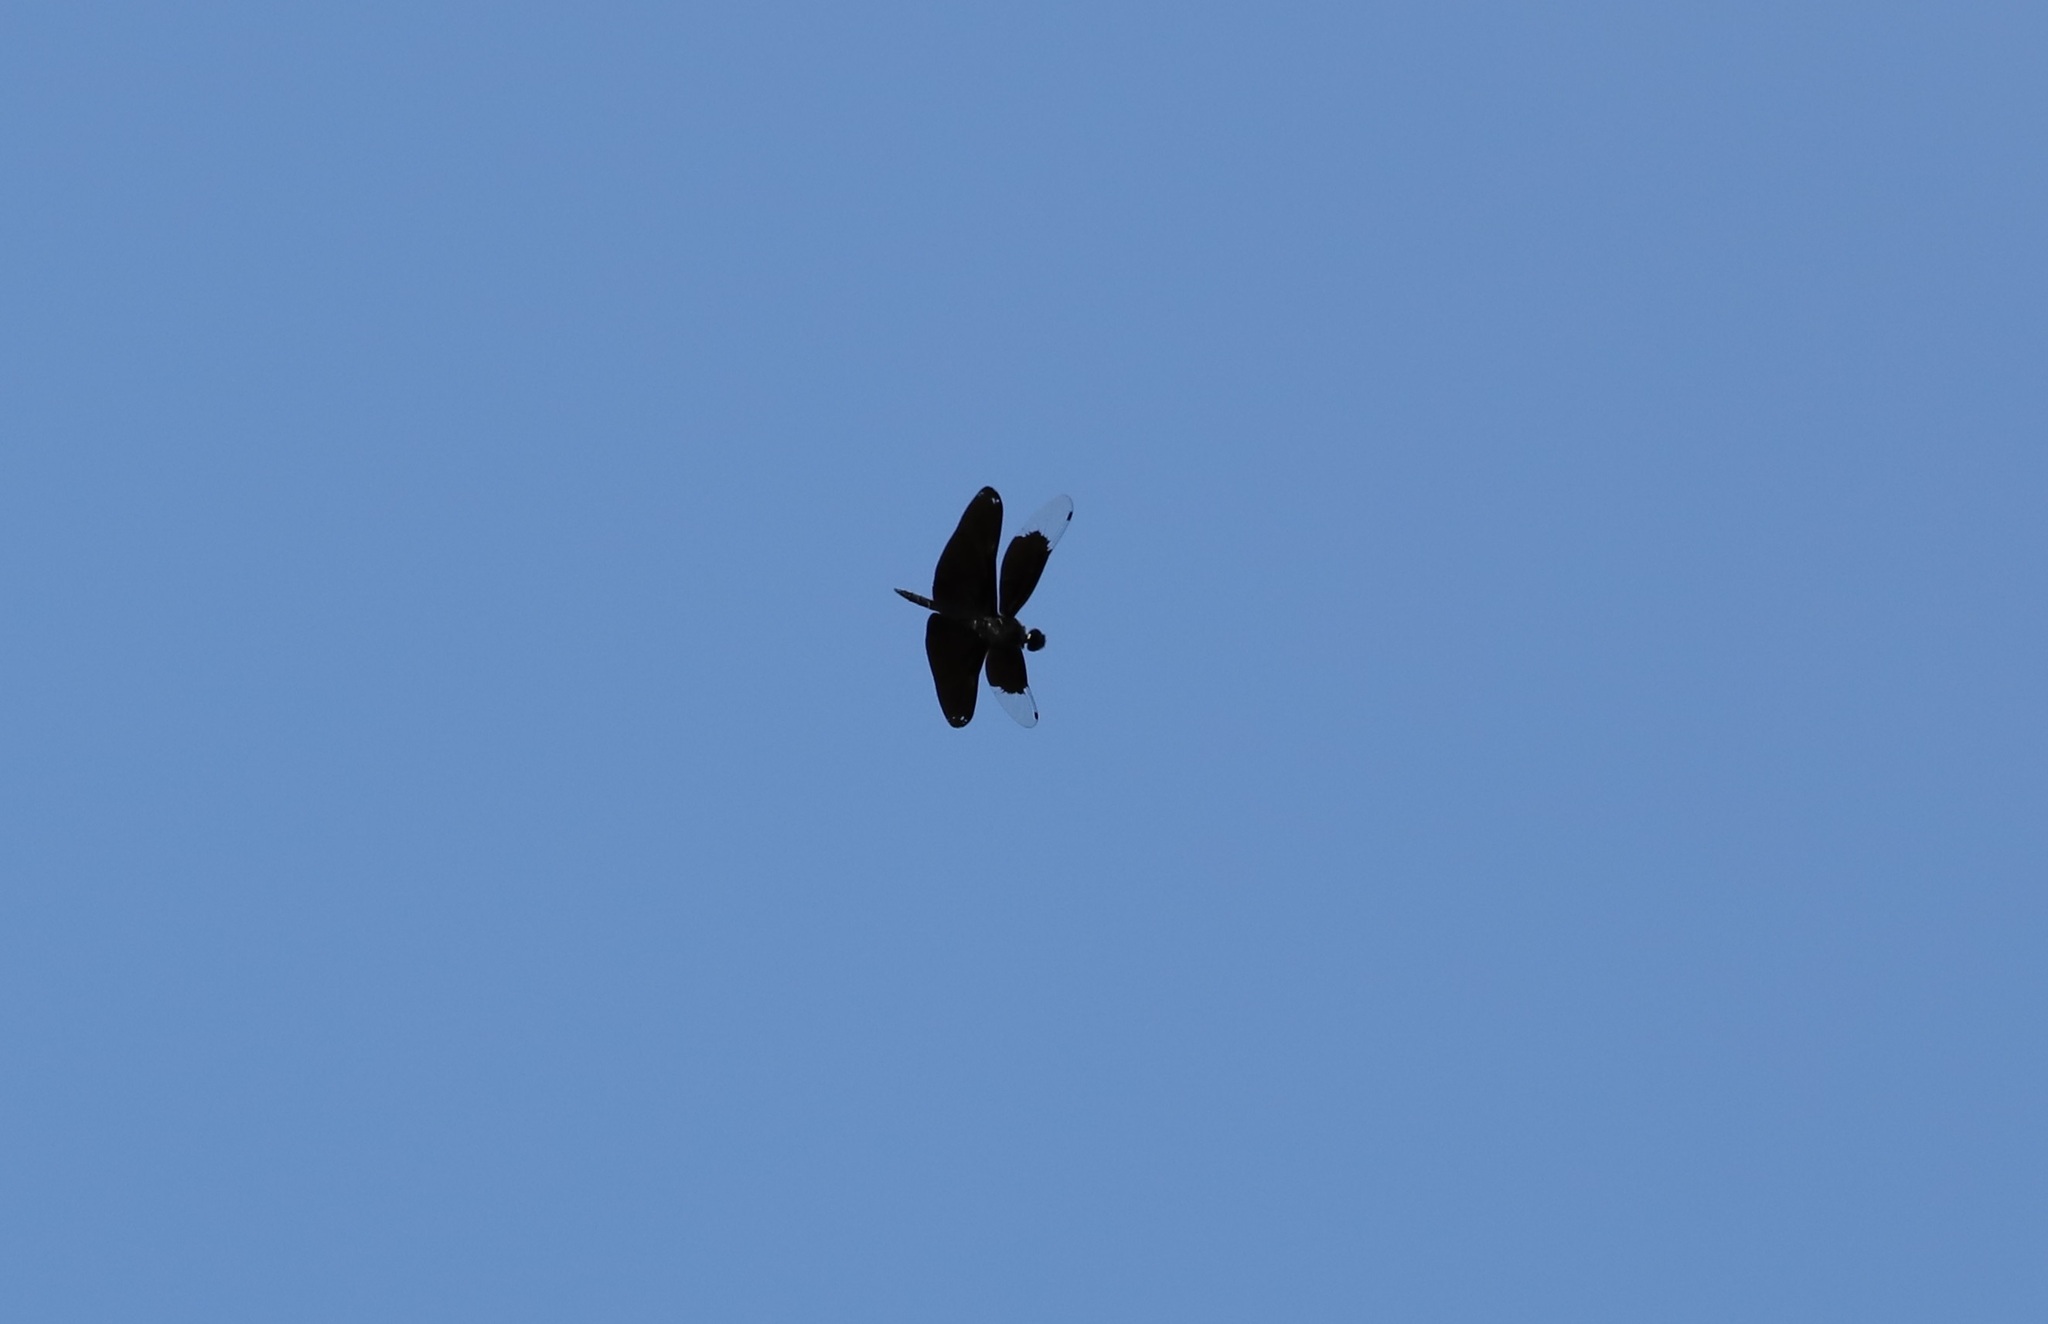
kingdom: Animalia
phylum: Arthropoda
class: Insecta
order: Odonata
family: Libellulidae
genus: Rhyothemis
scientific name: Rhyothemis fuliginosa
